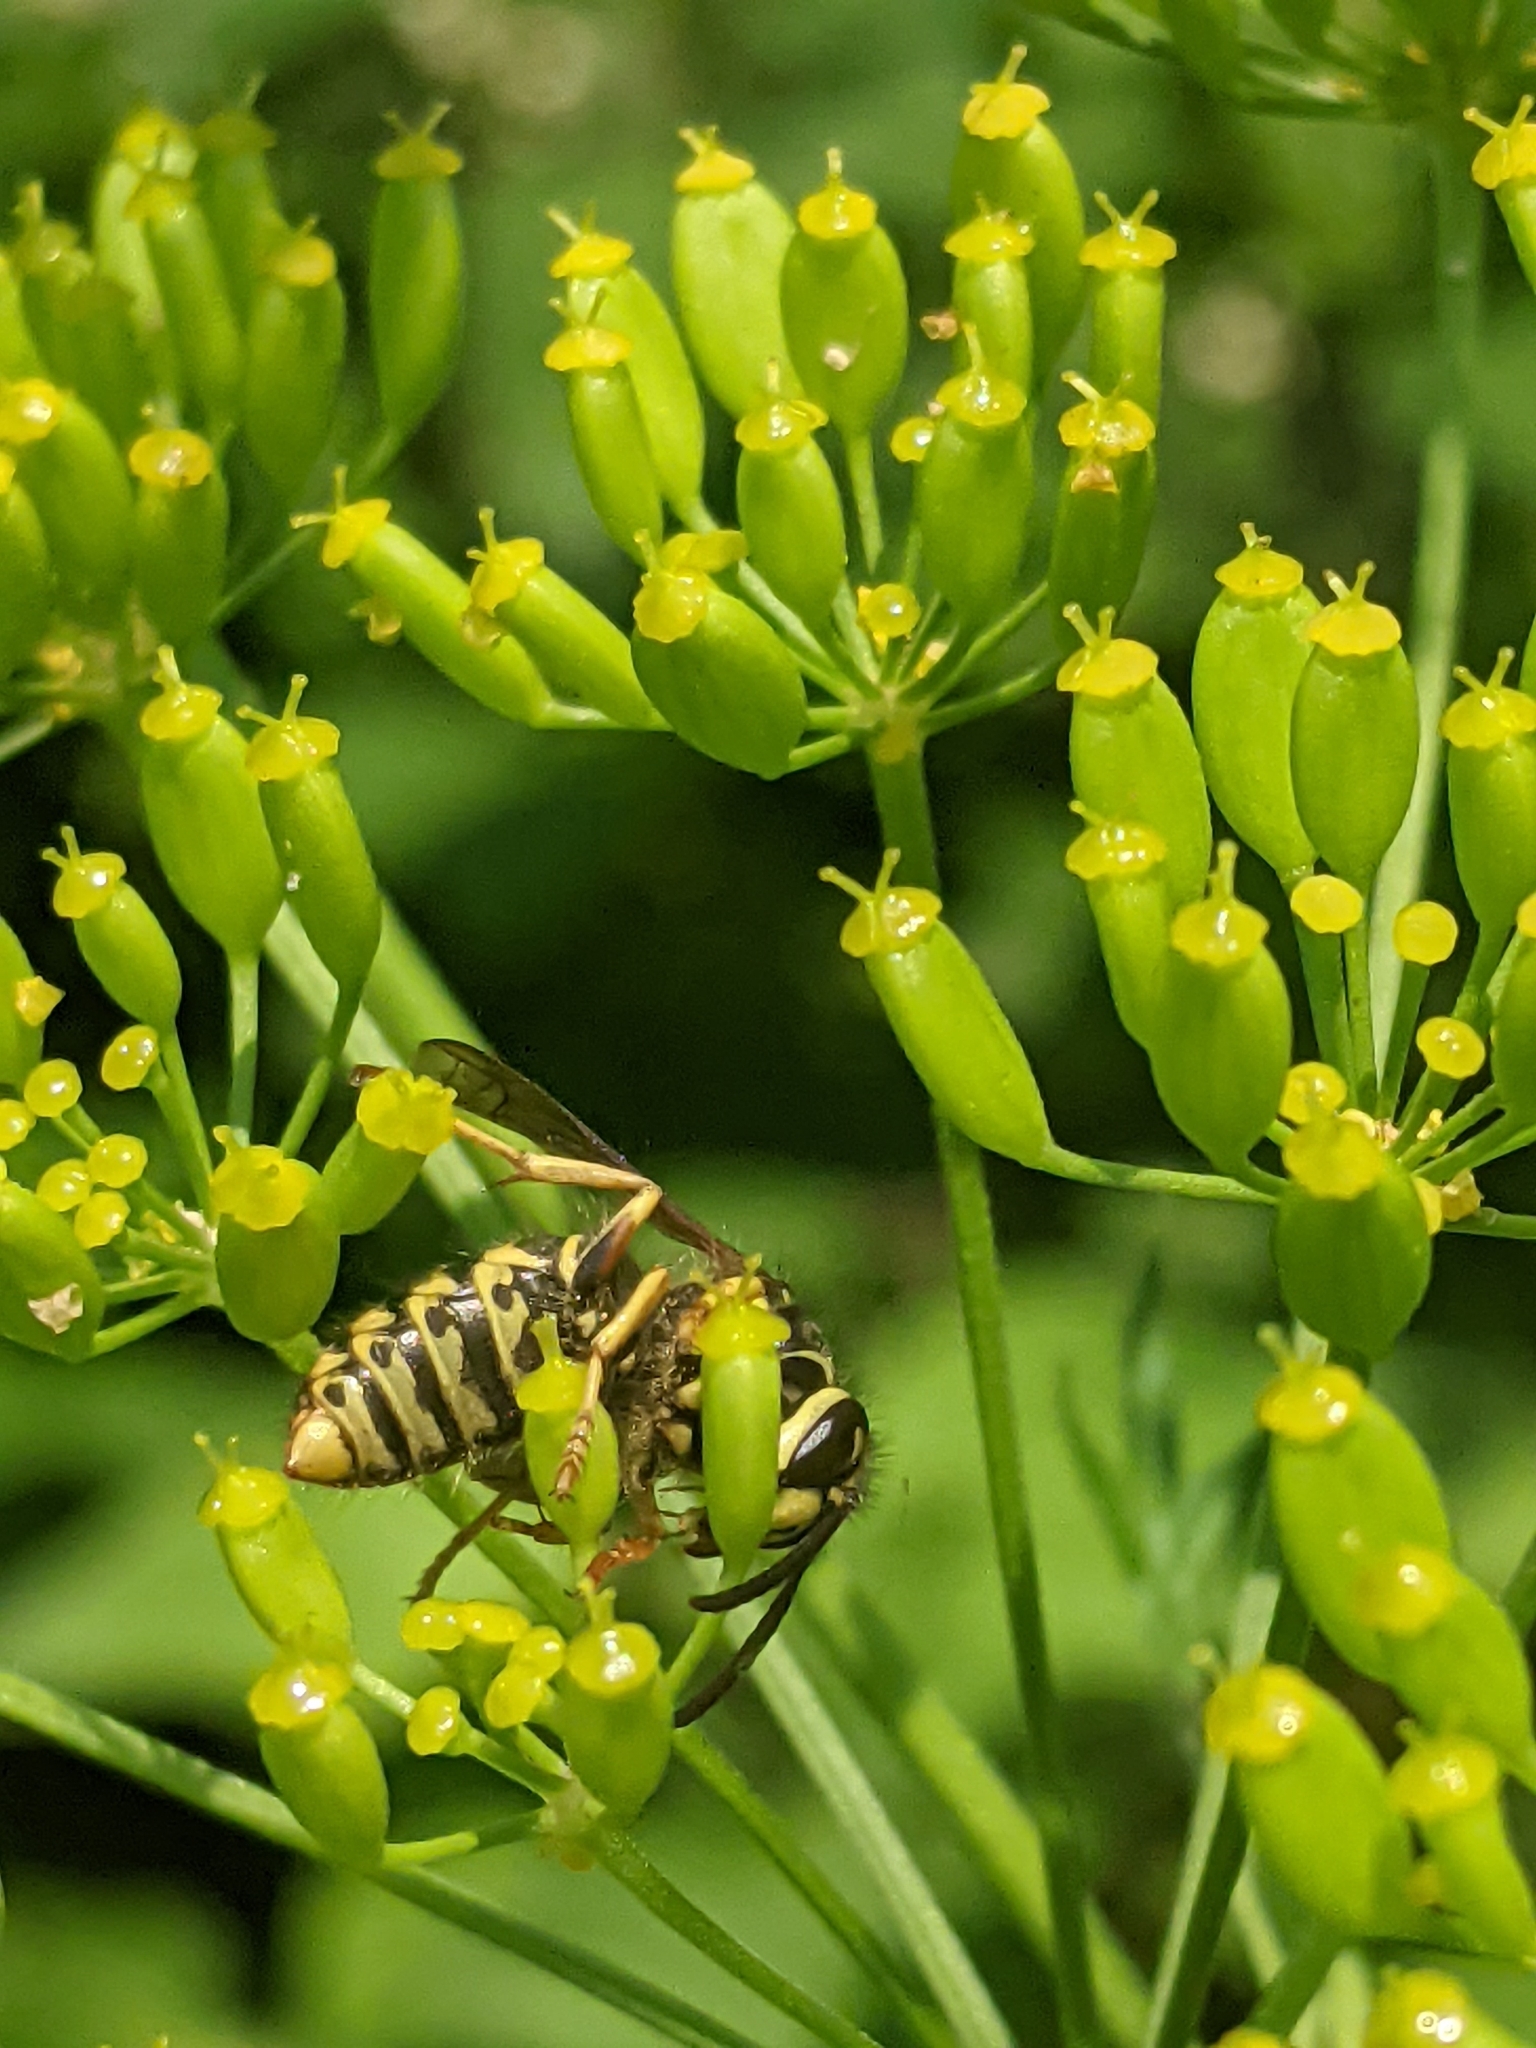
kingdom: Animalia
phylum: Arthropoda
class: Insecta
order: Hymenoptera
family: Vespidae
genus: Dolichovespula
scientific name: Dolichovespula arenaria
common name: Aerial yellowjacket
